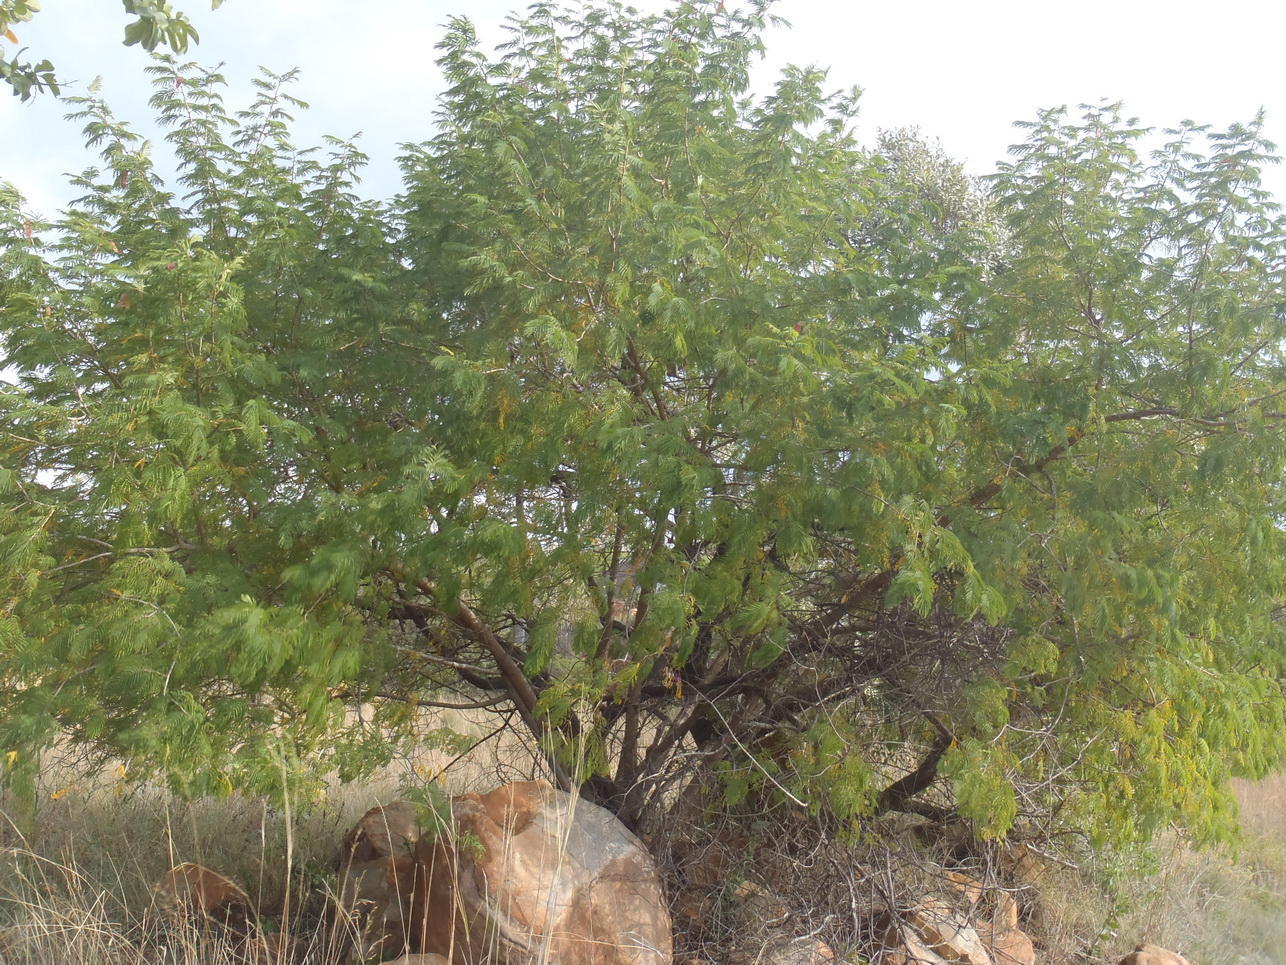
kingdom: Plantae
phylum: Tracheophyta
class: Magnoliopsida
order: Fabales
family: Fabaceae
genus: Senegalia
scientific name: Senegalia ataxacantha
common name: Flame acacia
